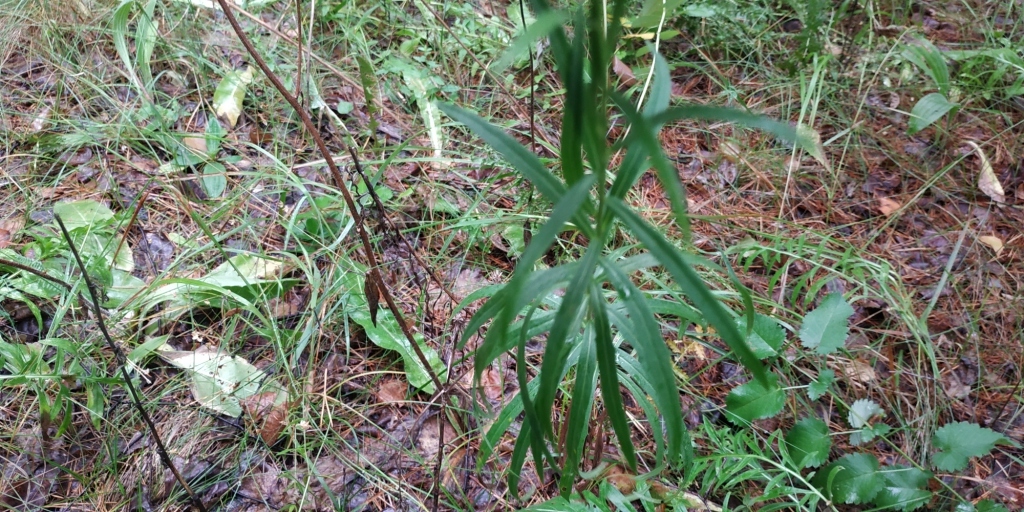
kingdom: Plantae
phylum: Tracheophyta
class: Magnoliopsida
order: Asterales
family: Asteraceae
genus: Hieracium
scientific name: Hieracium umbellatum
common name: Northern hawkweed
